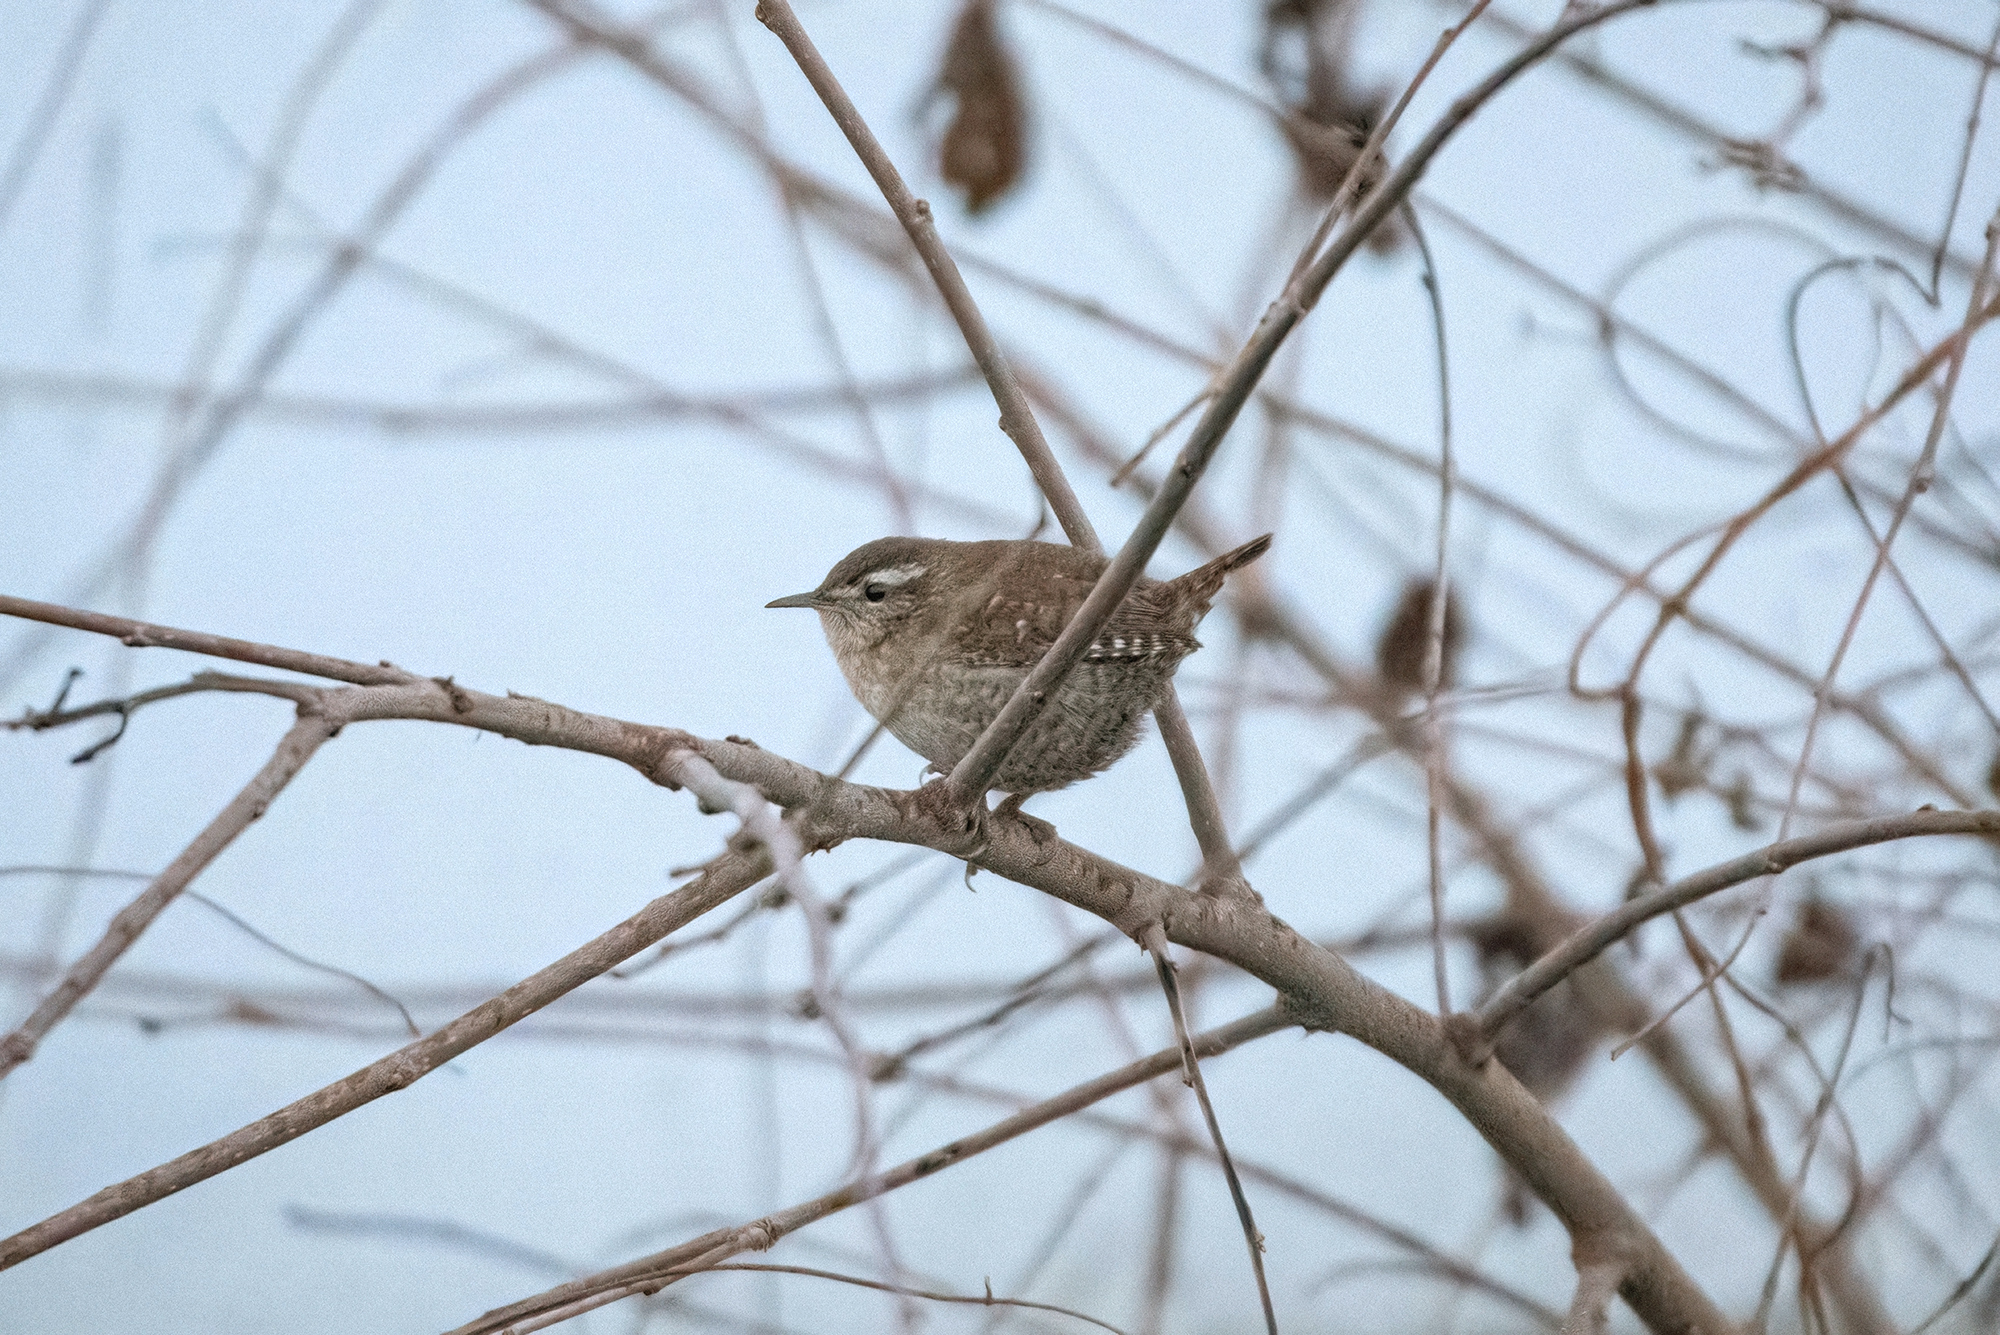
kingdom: Animalia
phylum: Chordata
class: Aves
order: Passeriformes
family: Troglodytidae
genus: Troglodytes
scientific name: Troglodytes troglodytes
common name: Eurasian wren
